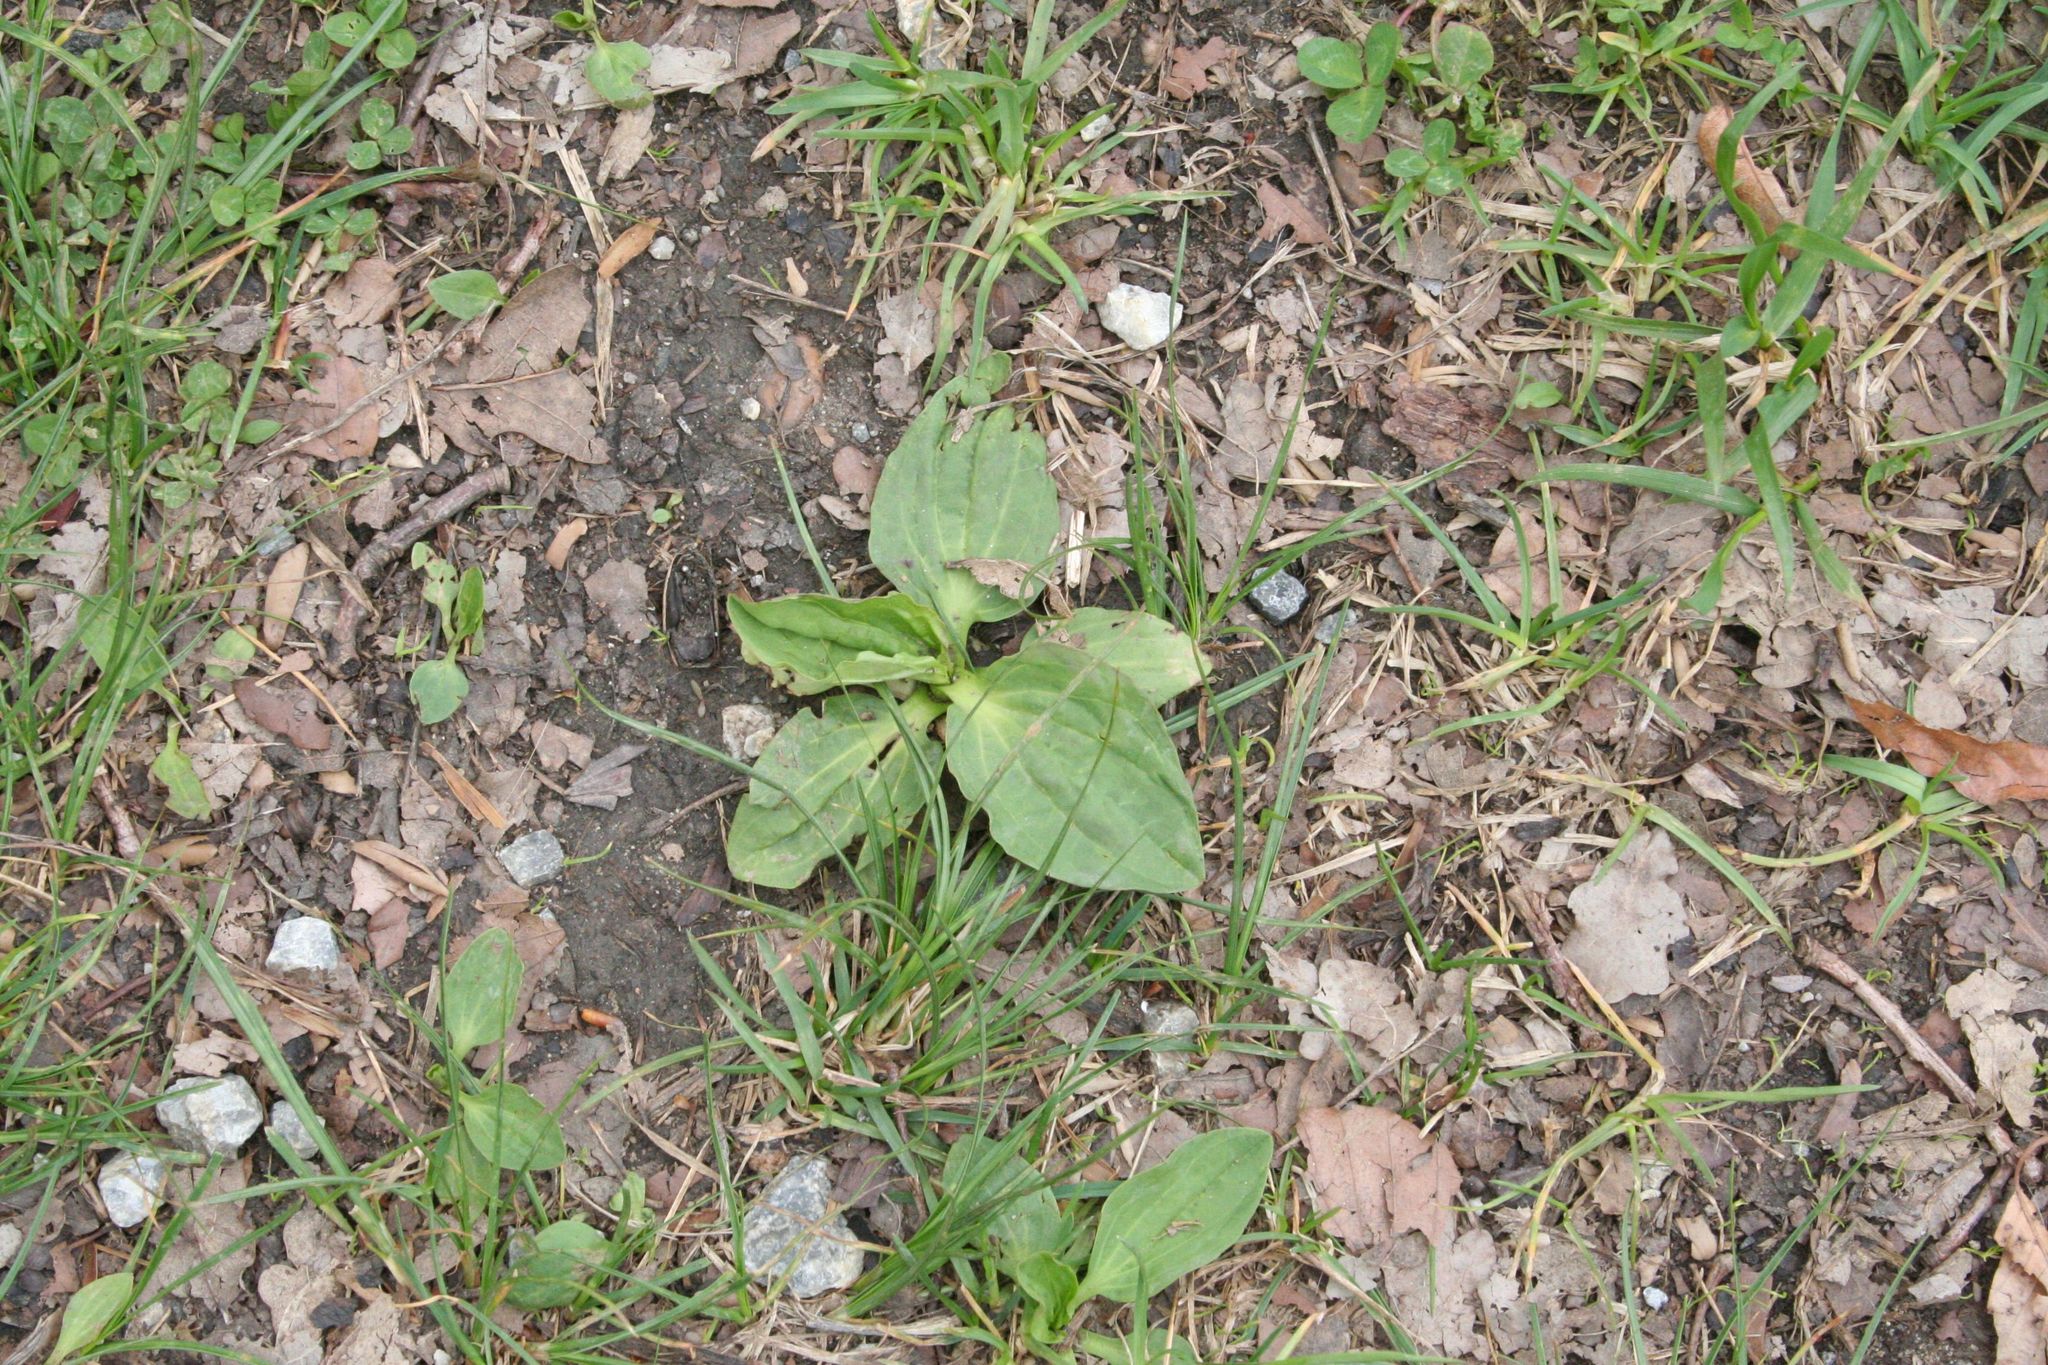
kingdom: Plantae
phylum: Tracheophyta
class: Magnoliopsida
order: Lamiales
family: Plantaginaceae
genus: Plantago
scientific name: Plantago major
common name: Common plantain
